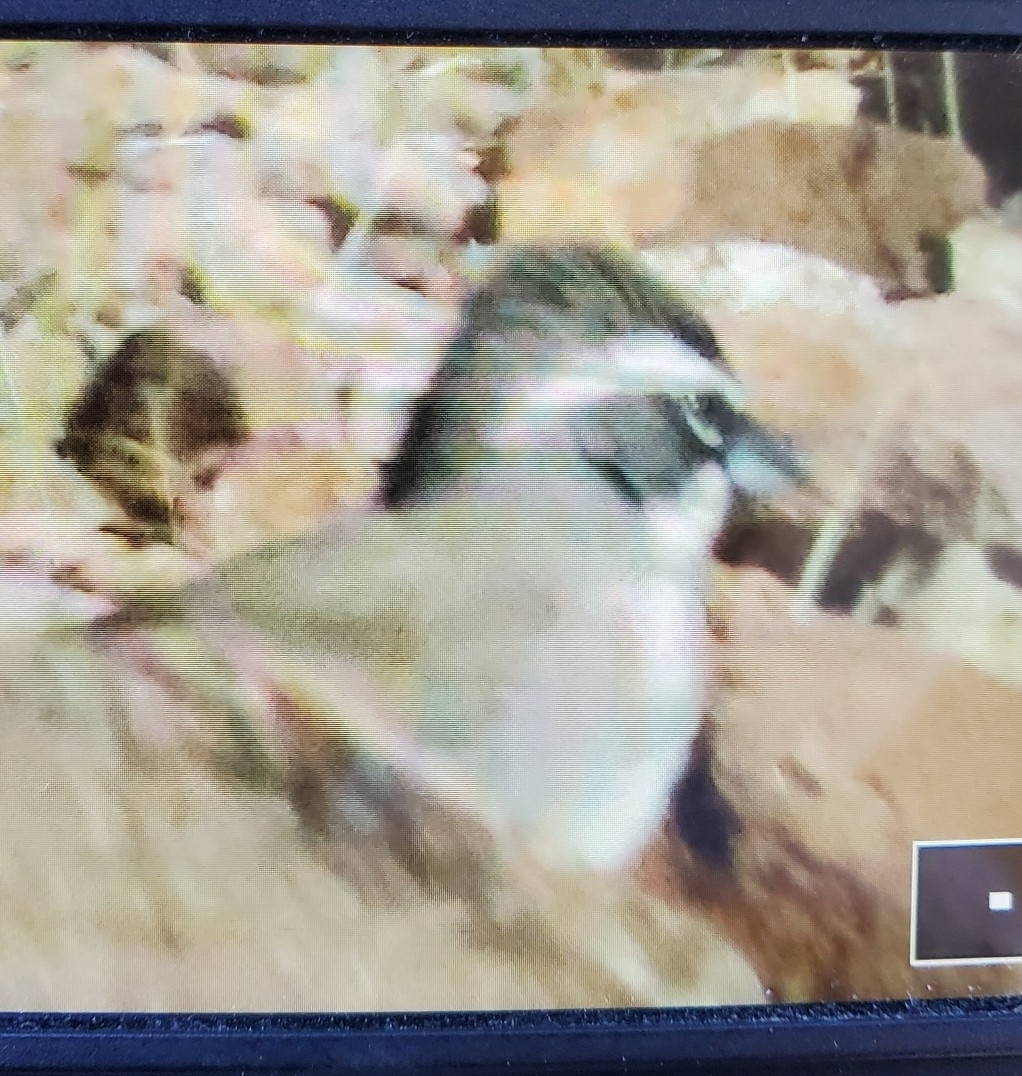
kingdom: Animalia
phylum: Chordata
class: Aves
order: Passeriformes
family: Passerellidae
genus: Amphispiza
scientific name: Amphispiza bilineata
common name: Black-throated sparrow
